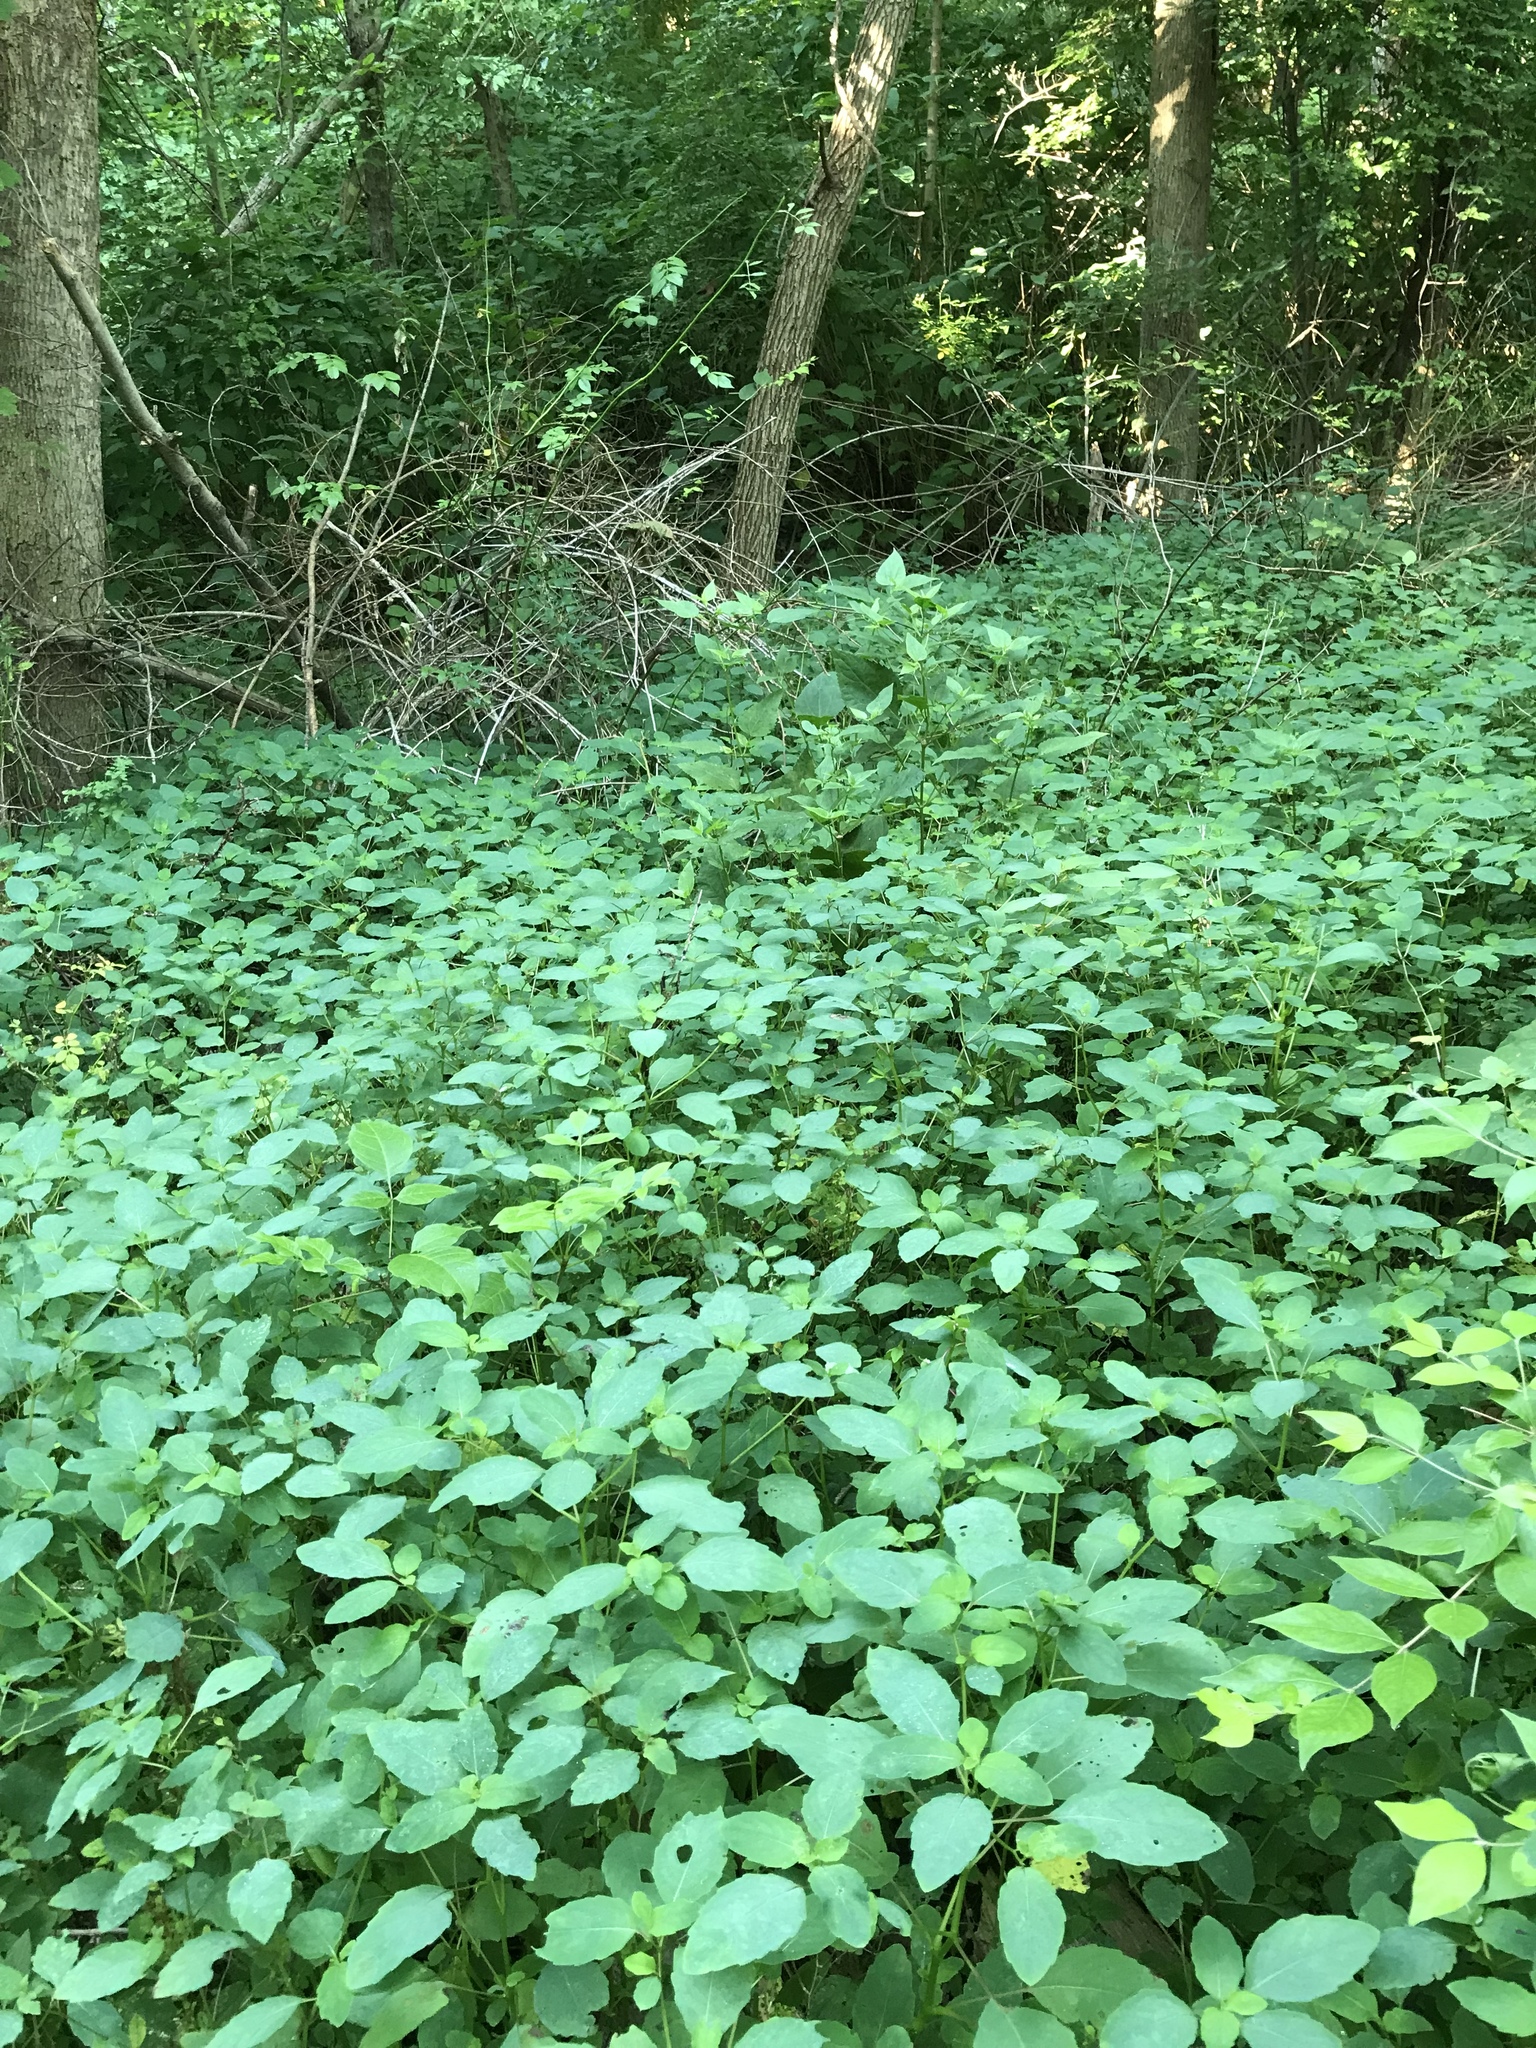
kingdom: Plantae
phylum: Tracheophyta
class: Magnoliopsida
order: Ericales
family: Balsaminaceae
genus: Impatiens
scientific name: Impatiens capensis
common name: Orange balsam
